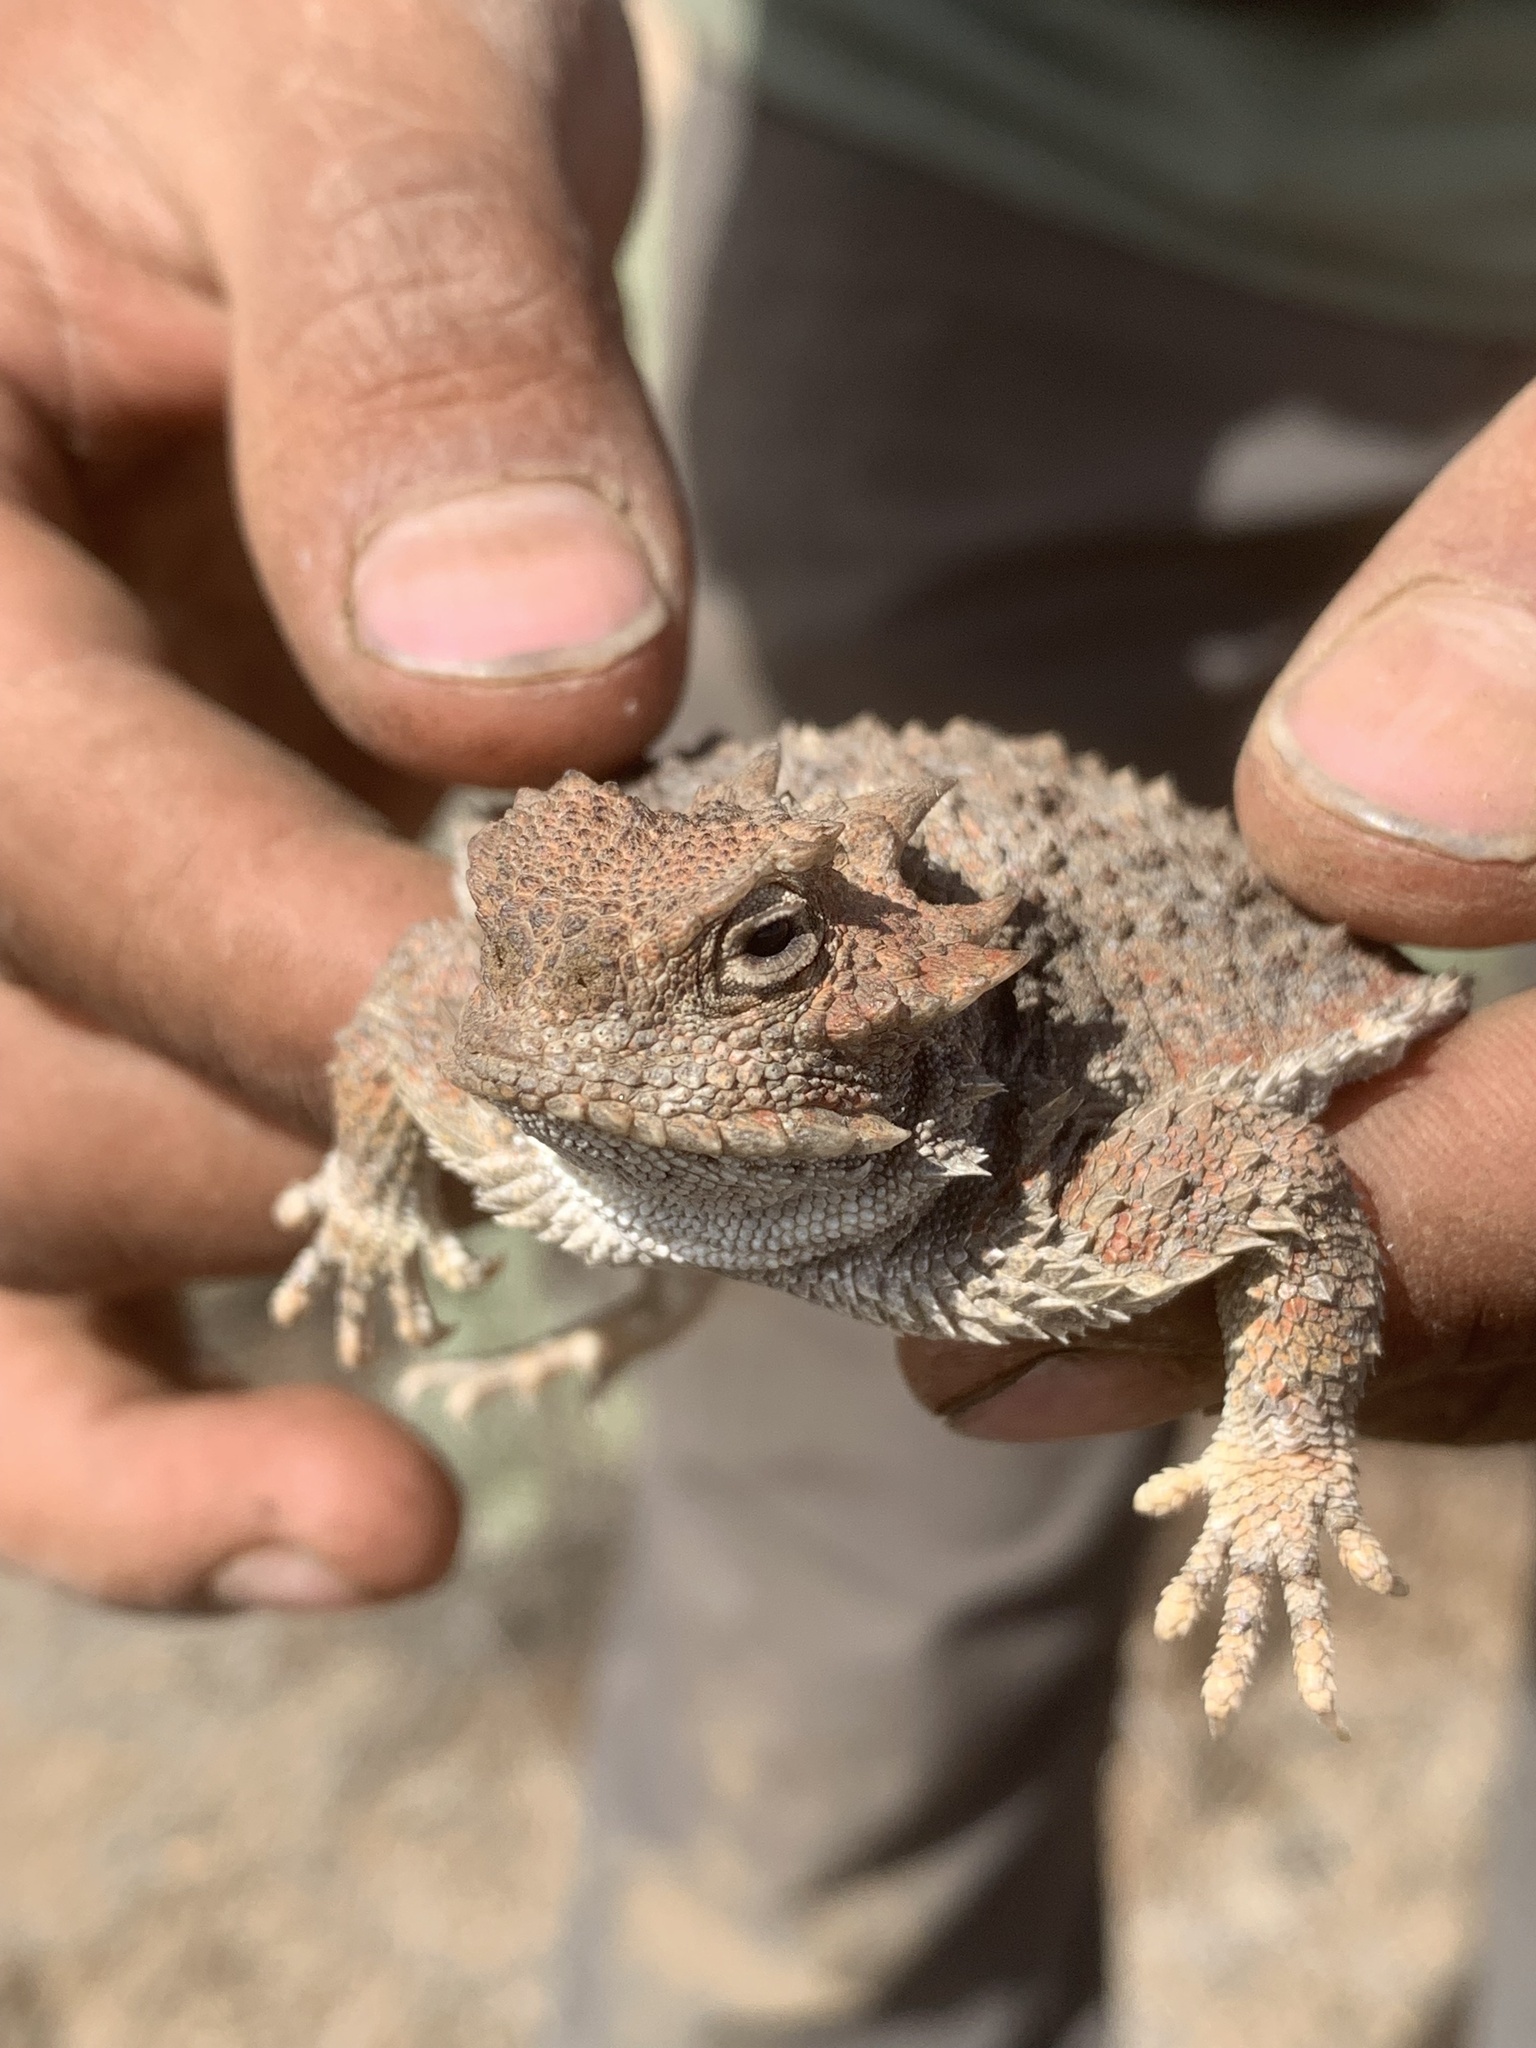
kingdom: Animalia
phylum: Chordata
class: Squamata
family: Phrynosomatidae
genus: Phrynosoma
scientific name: Phrynosoma platyrhinos
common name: Desert horned lizard
